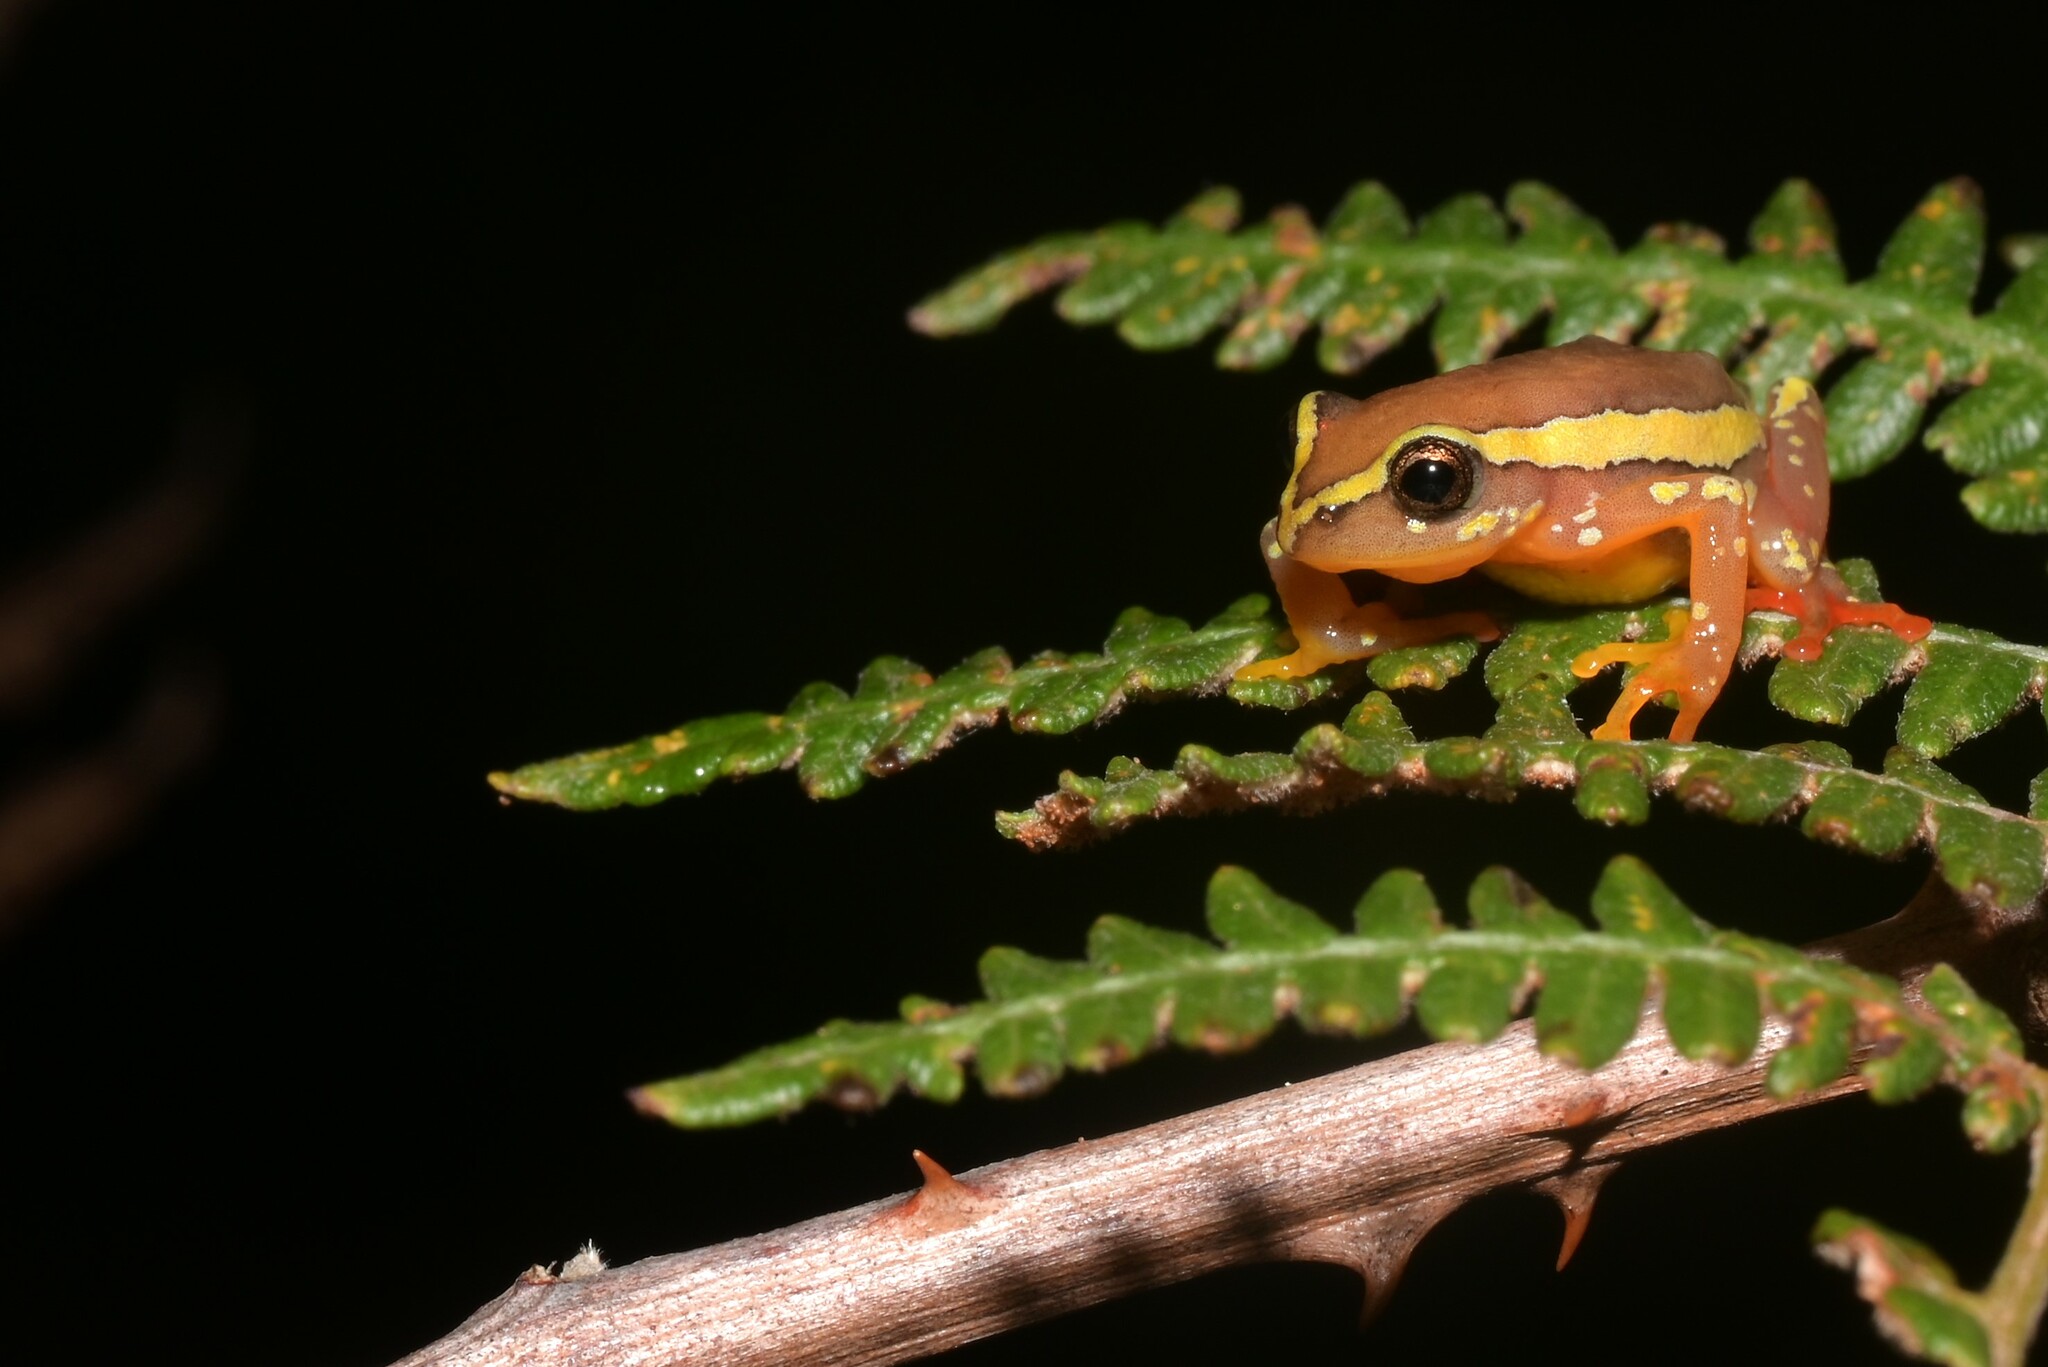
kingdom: Animalia
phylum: Chordata
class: Amphibia
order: Anura
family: Hyperoliidae
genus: Hyperolius
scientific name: Hyperolius pictus
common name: Variable reed frog
